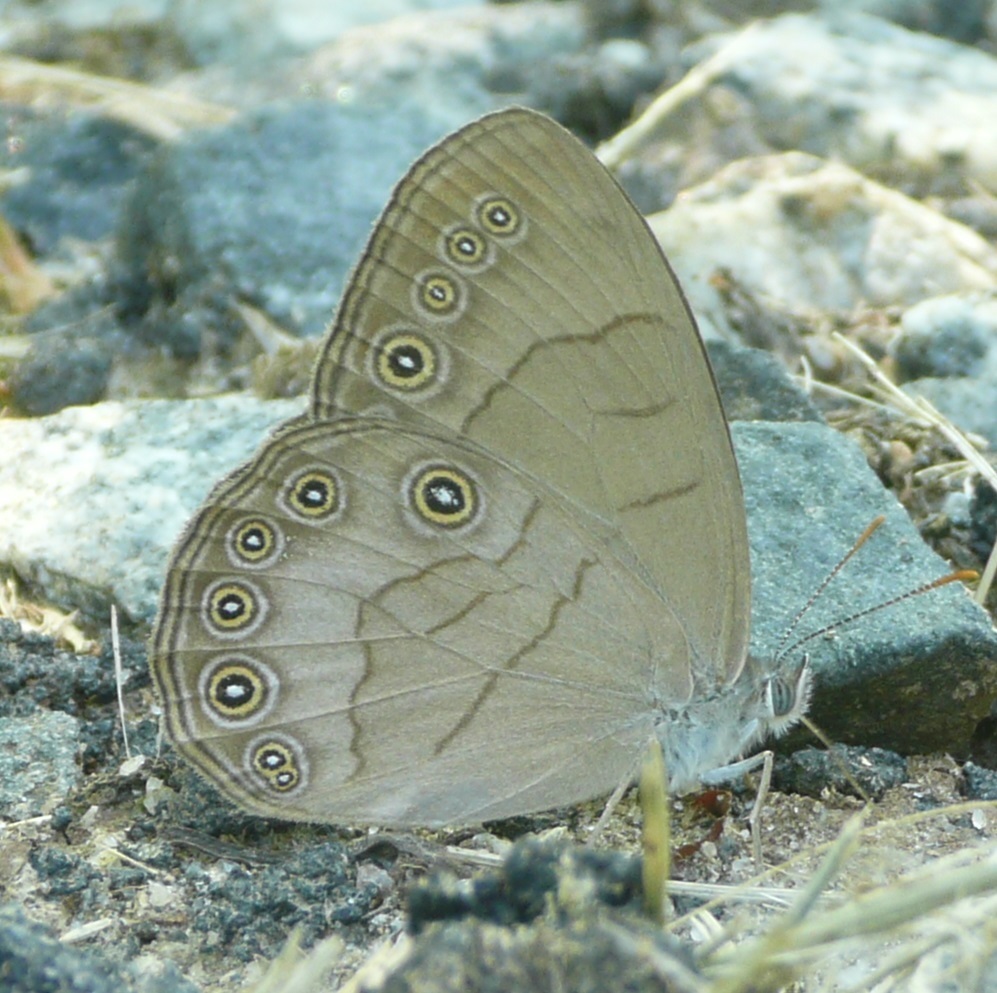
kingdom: Animalia
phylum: Arthropoda
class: Insecta
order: Lepidoptera
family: Nymphalidae
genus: Lethe
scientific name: Lethe eurydice
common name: Eyed brown
